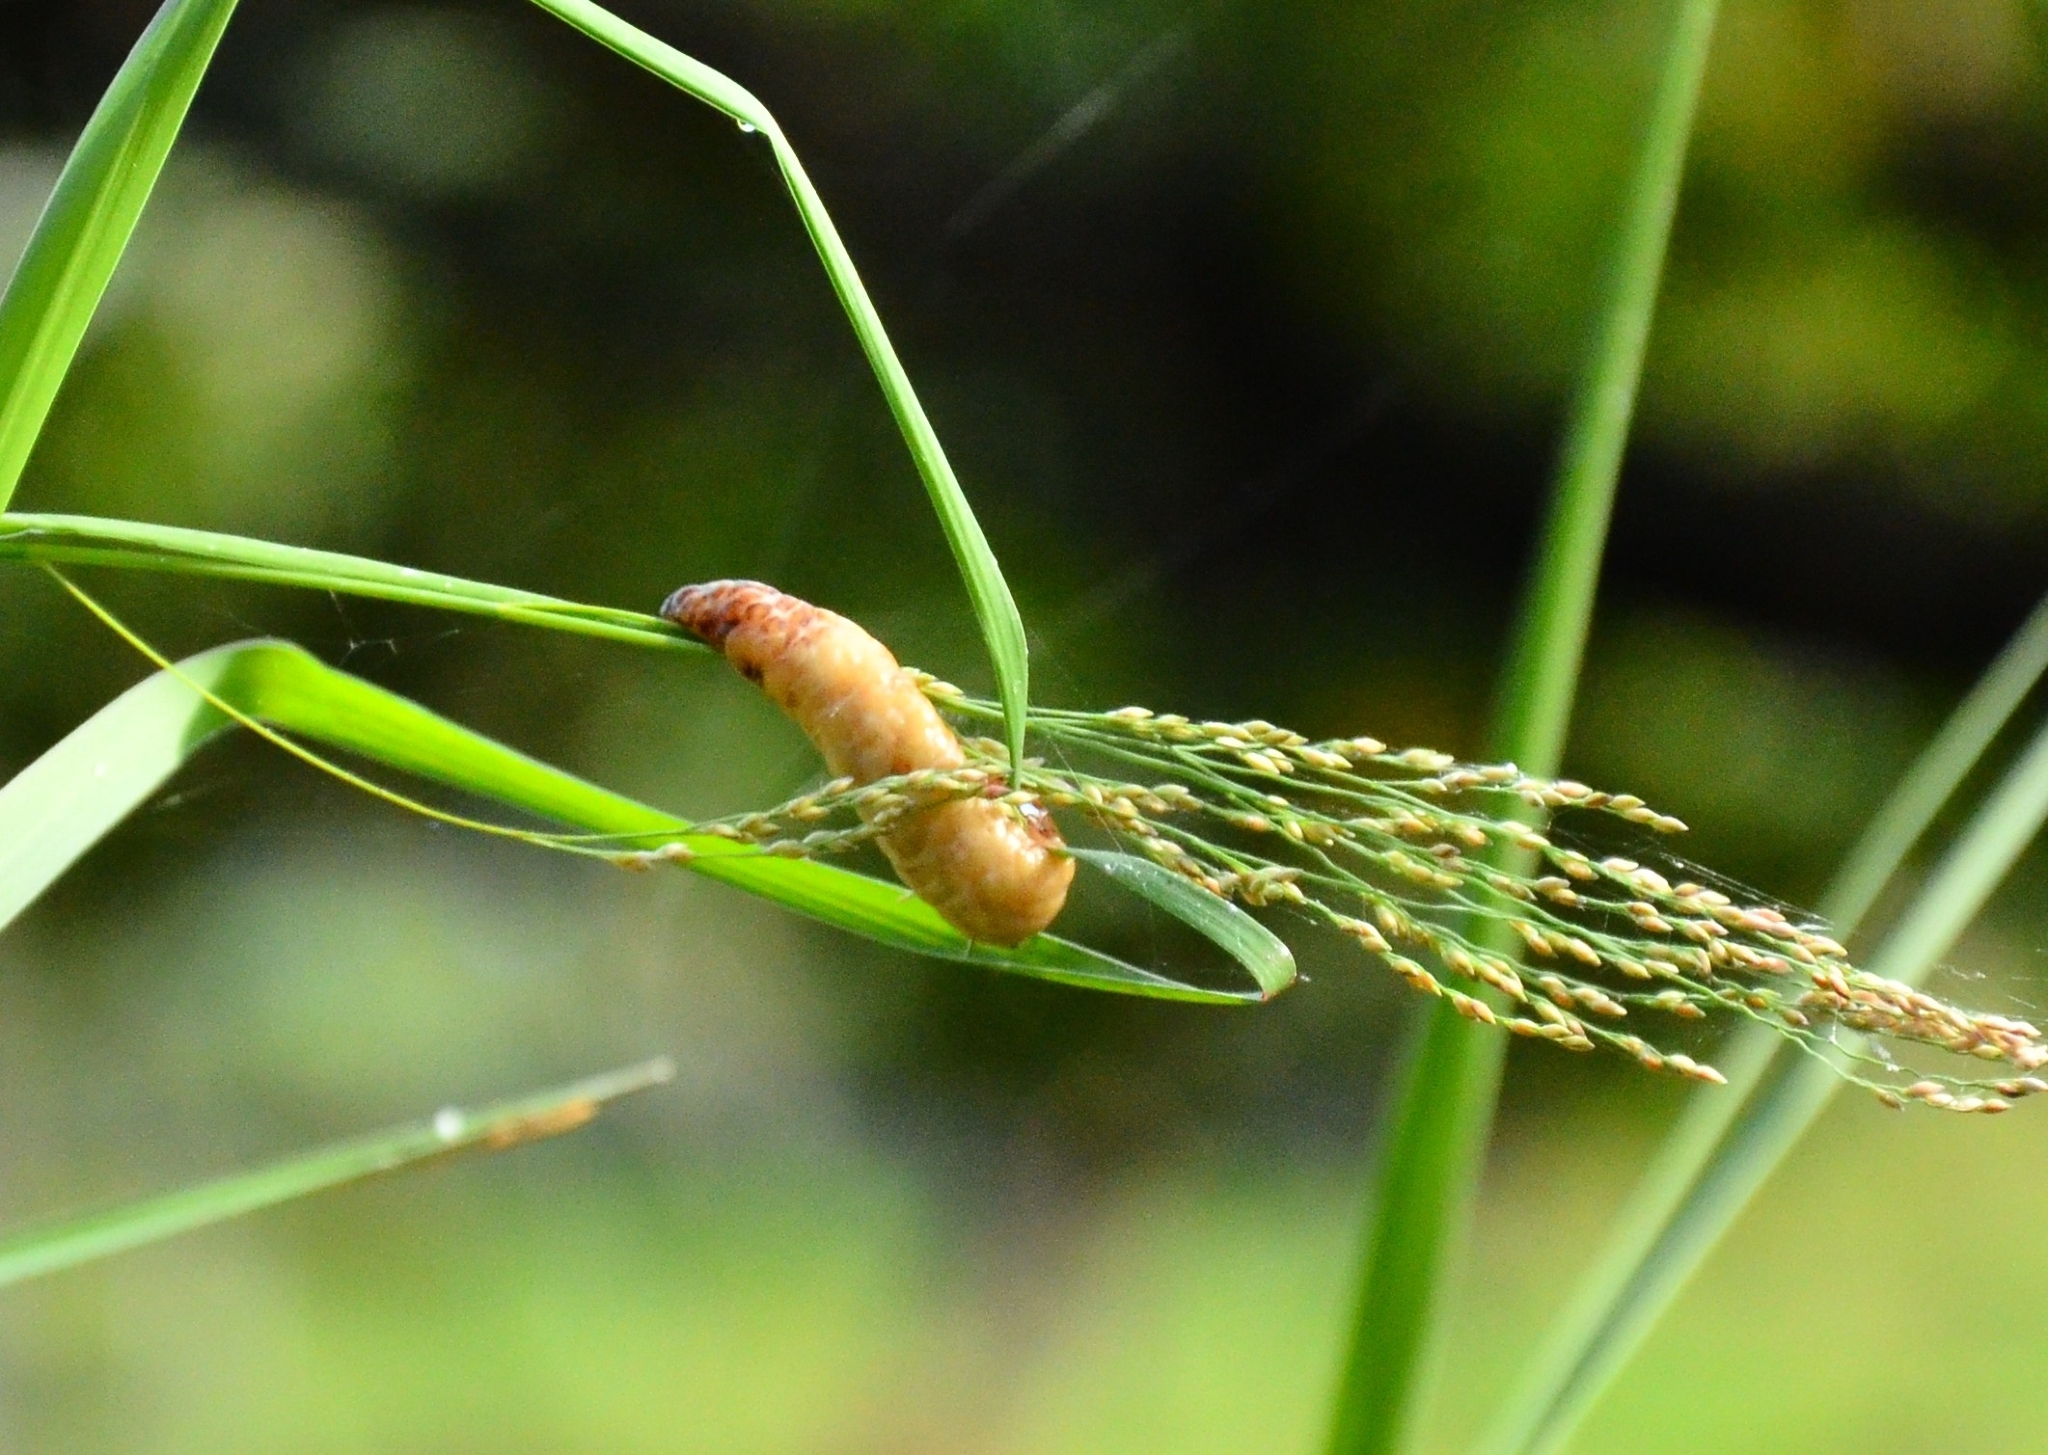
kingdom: Animalia
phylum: Mollusca
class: Gastropoda
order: Systellommatophora
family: Veronicellidae
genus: Laevicaulis
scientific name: Laevicaulis haroldi
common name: Caterpillar slug
